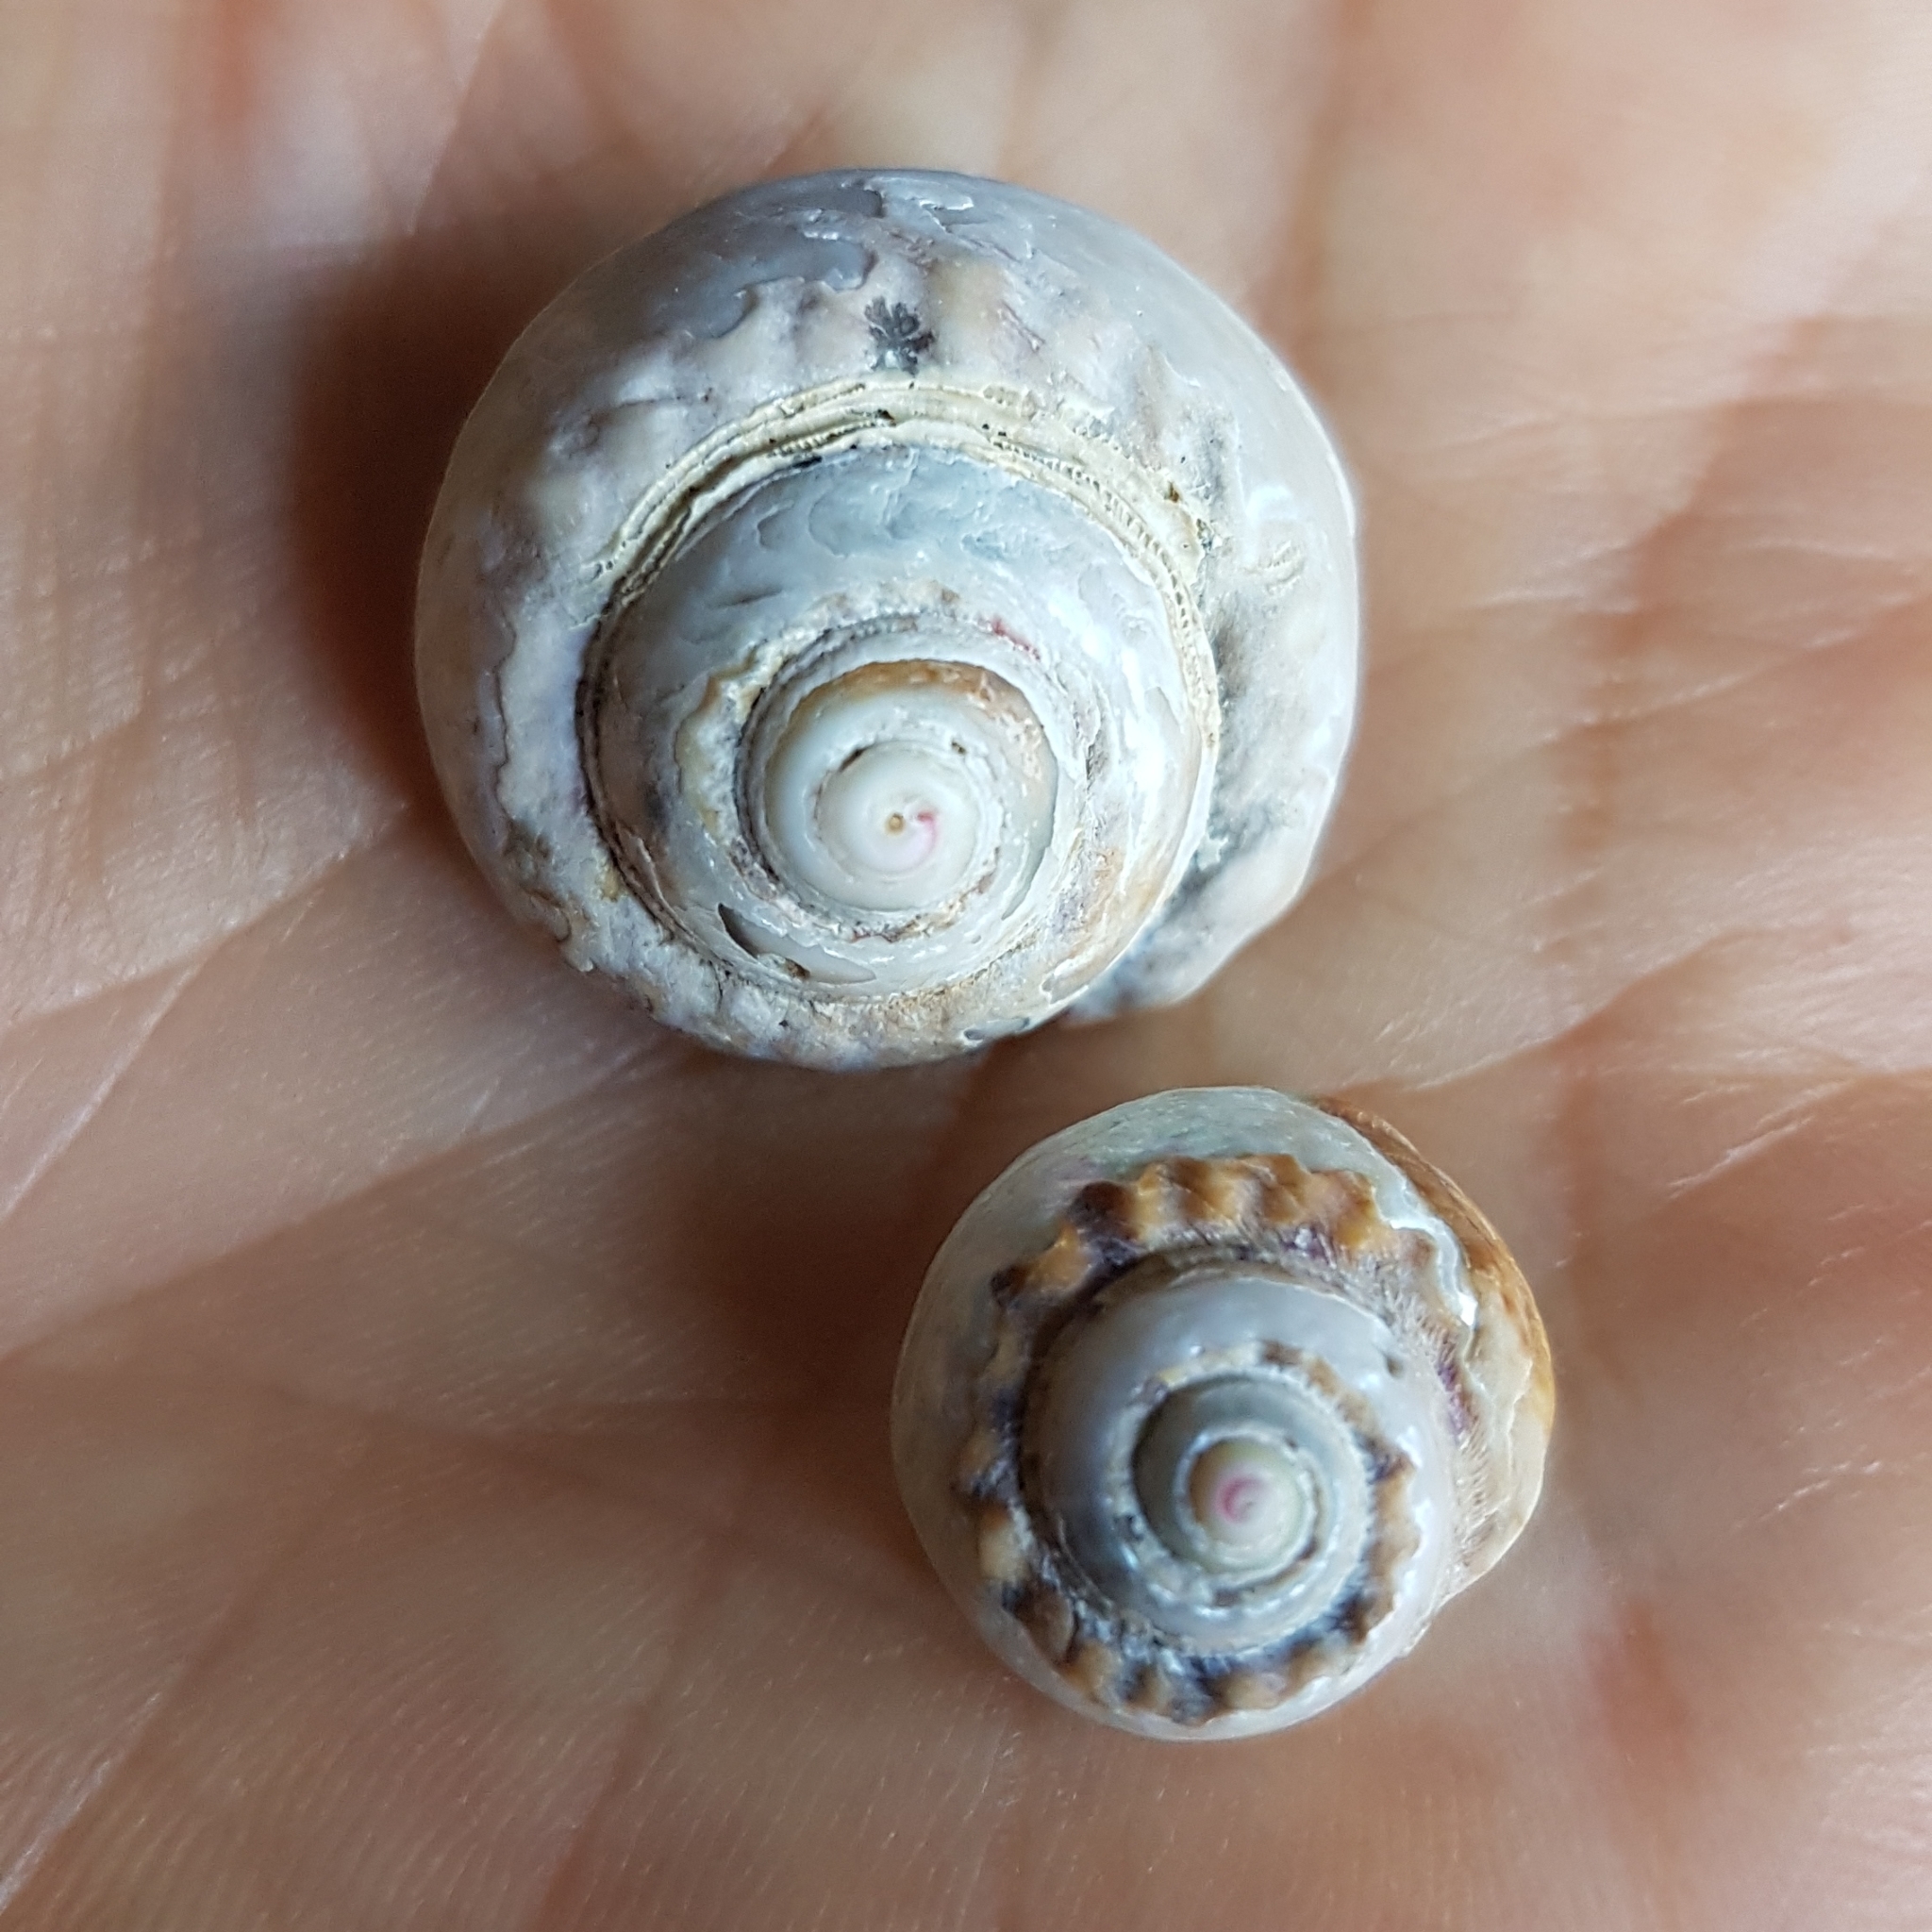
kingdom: Animalia
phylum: Mollusca
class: Gastropoda
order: Trochida
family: Trochidae
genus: Gibbula
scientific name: Gibbula magus
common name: Turban top shell
